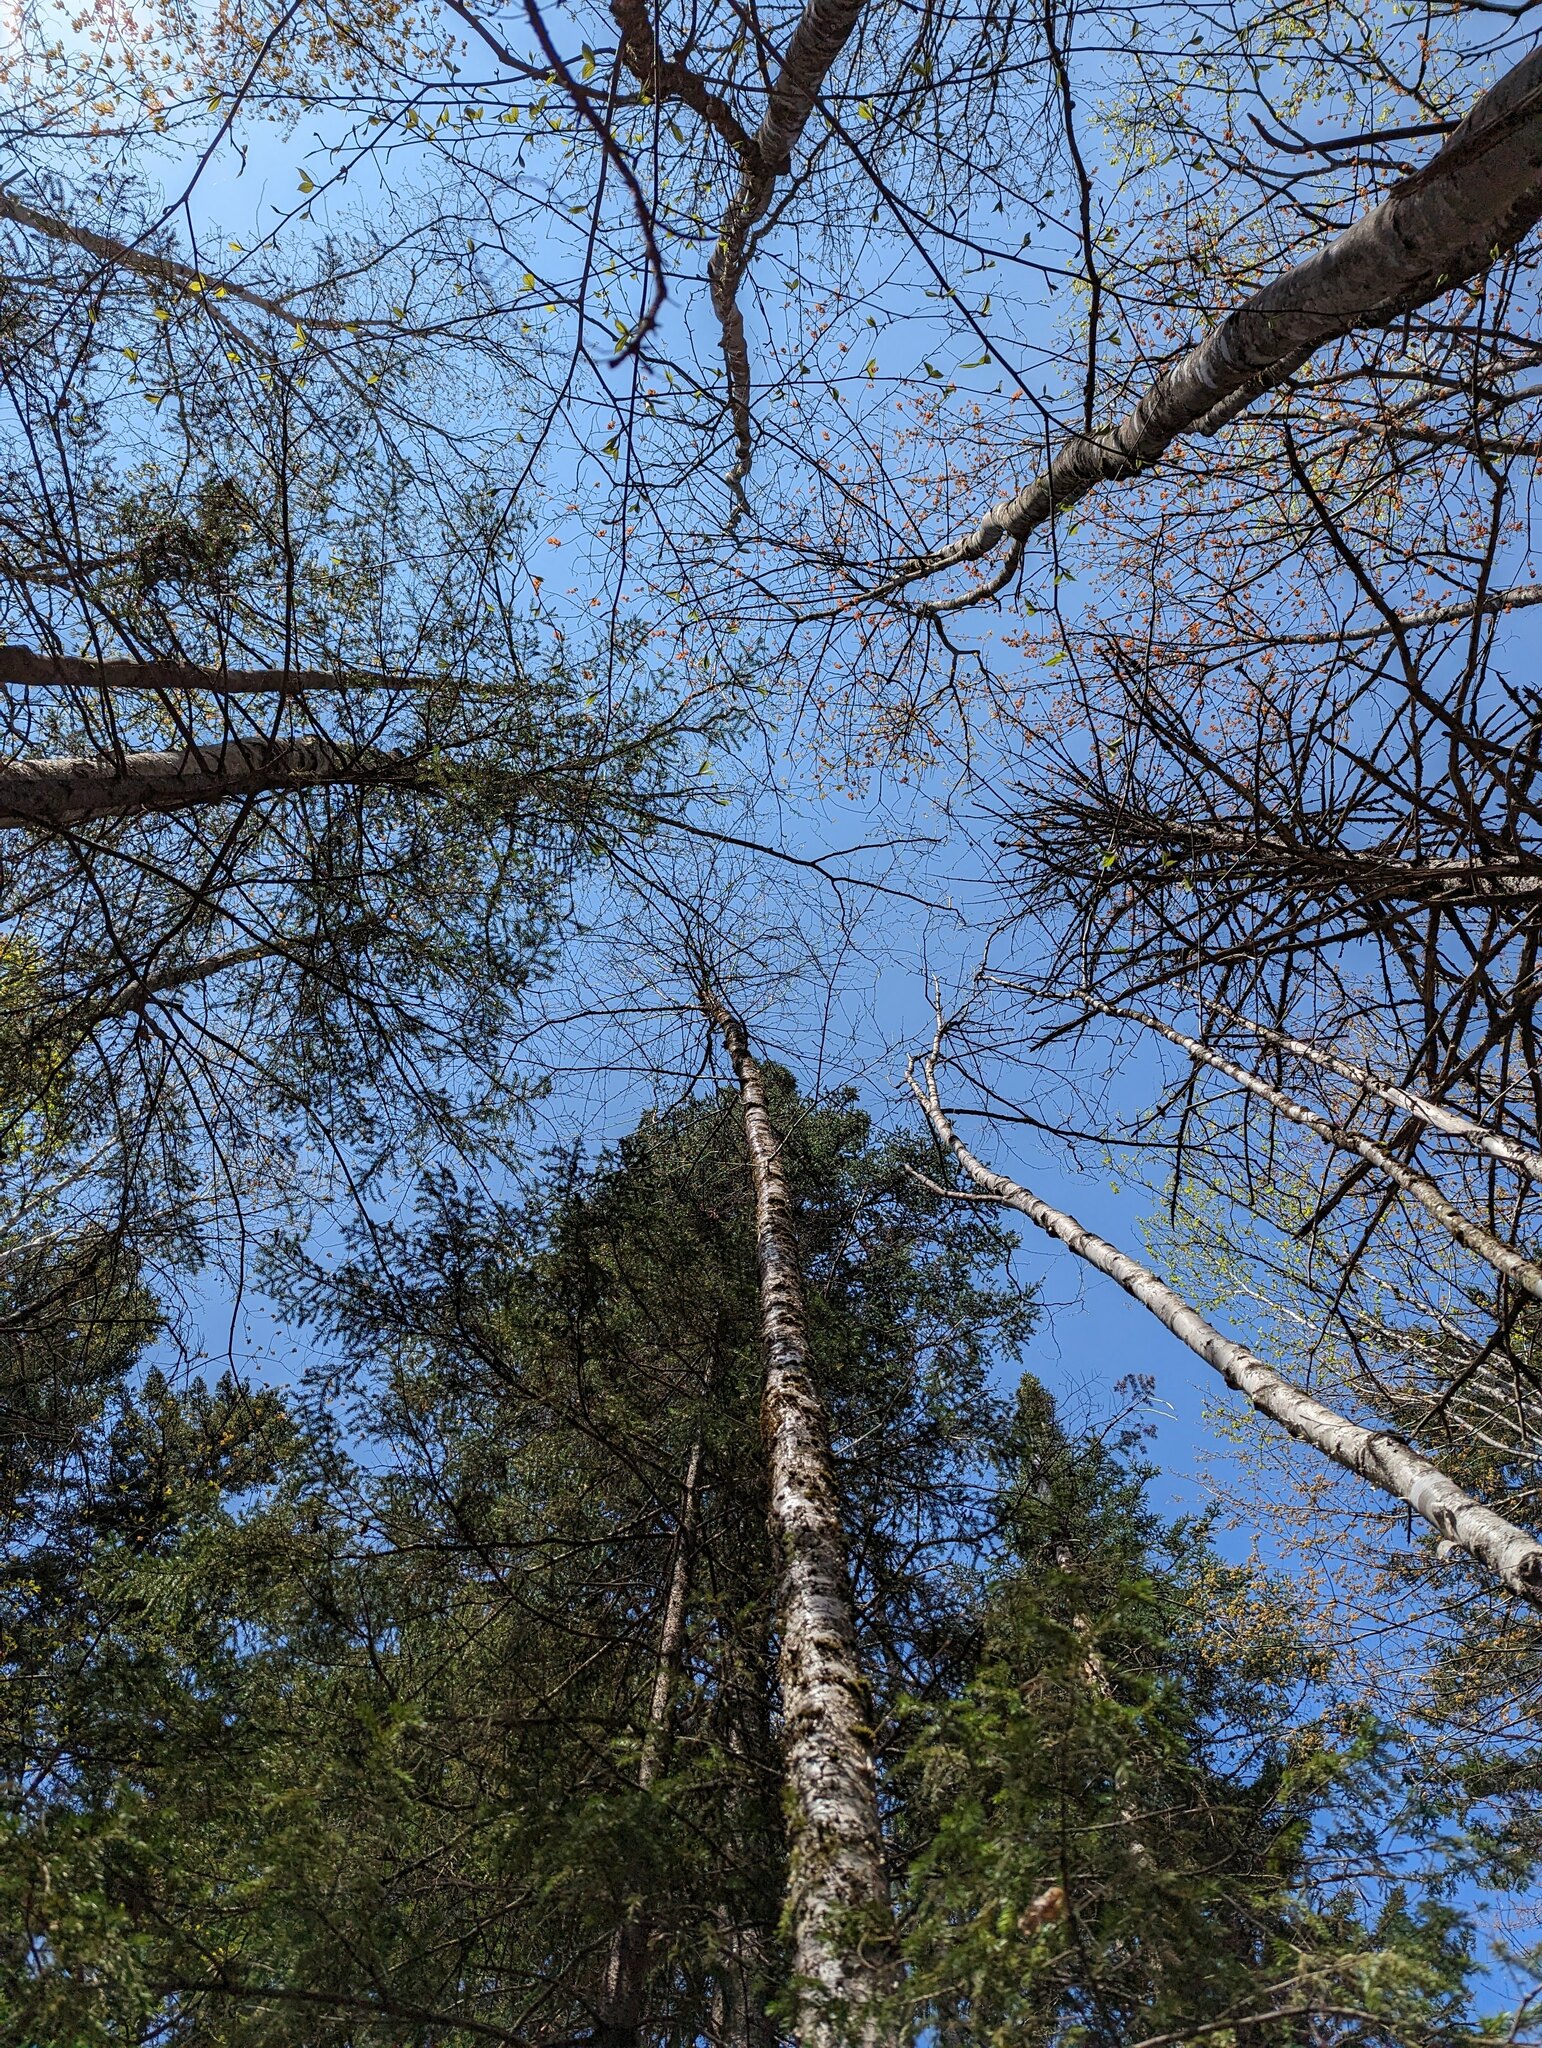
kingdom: Plantae
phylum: Tracheophyta
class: Magnoliopsida
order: Fagales
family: Betulaceae
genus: Betula
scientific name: Betula alleghaniensis
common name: Yellow birch
